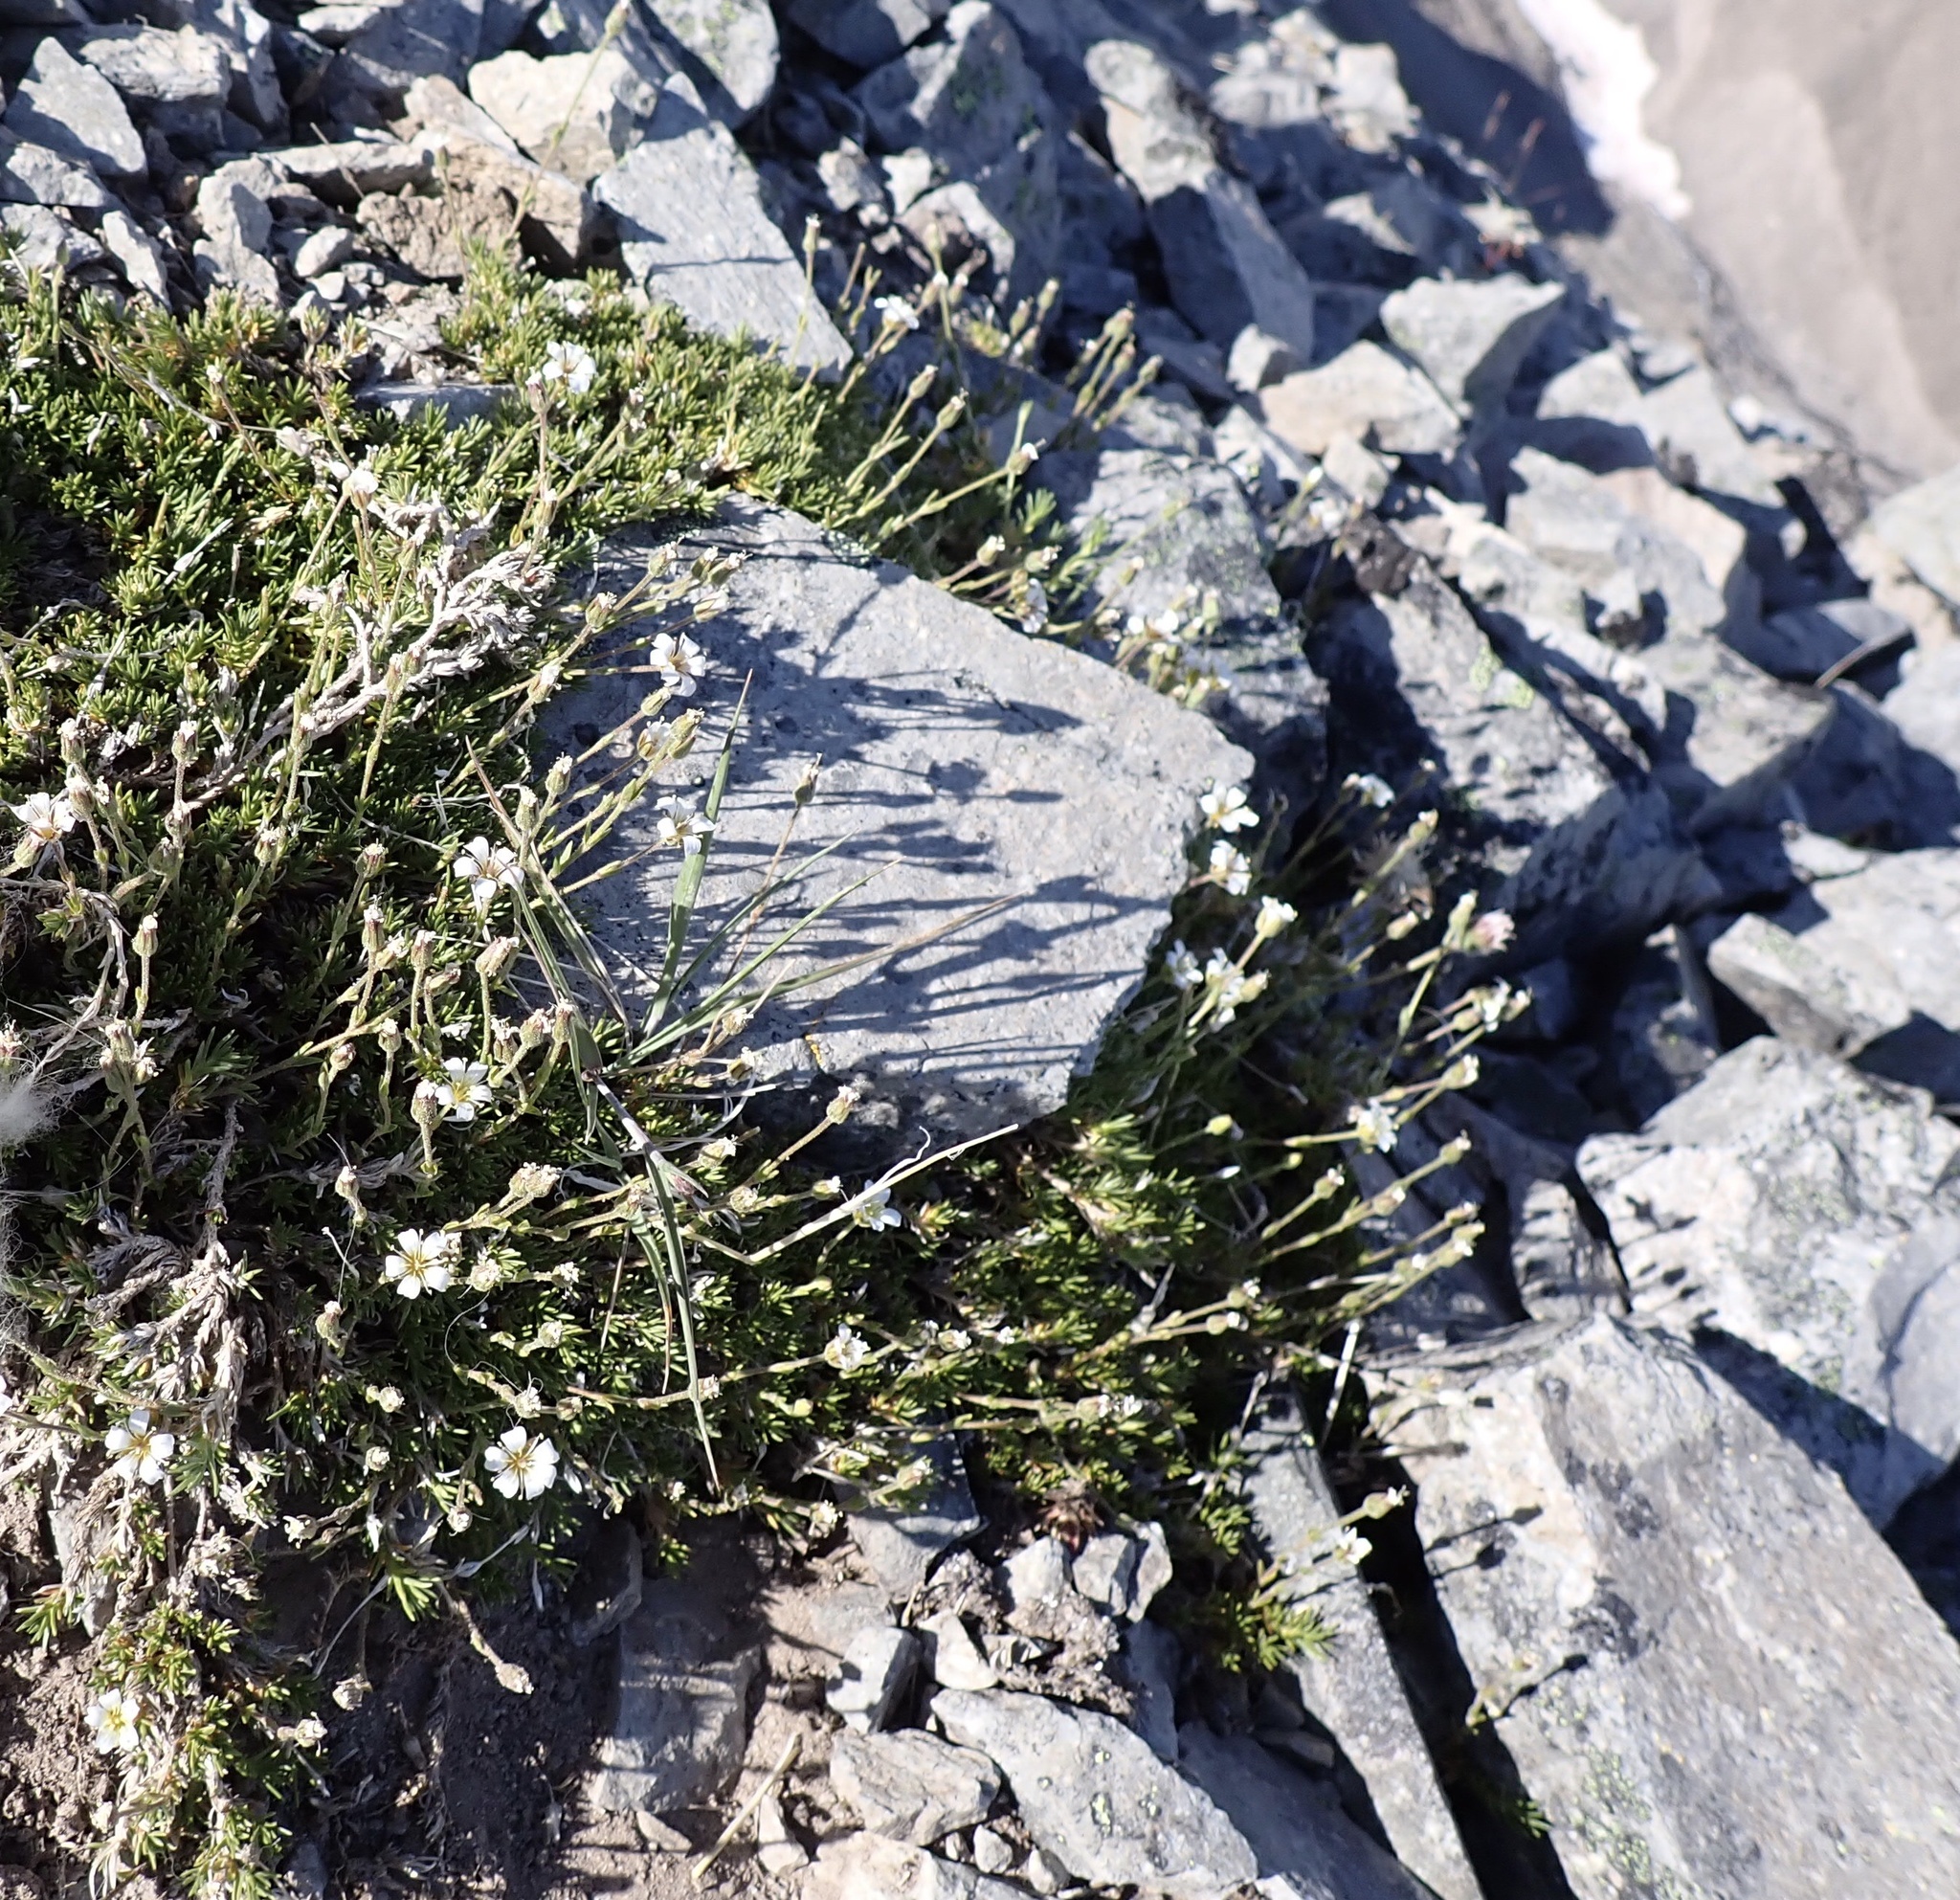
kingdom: Plantae
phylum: Tracheophyta
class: Magnoliopsida
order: Caryophyllales
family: Caryophyllaceae
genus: Cherleria
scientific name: Cherleria obtusiloba
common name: Alpine stitchwort
